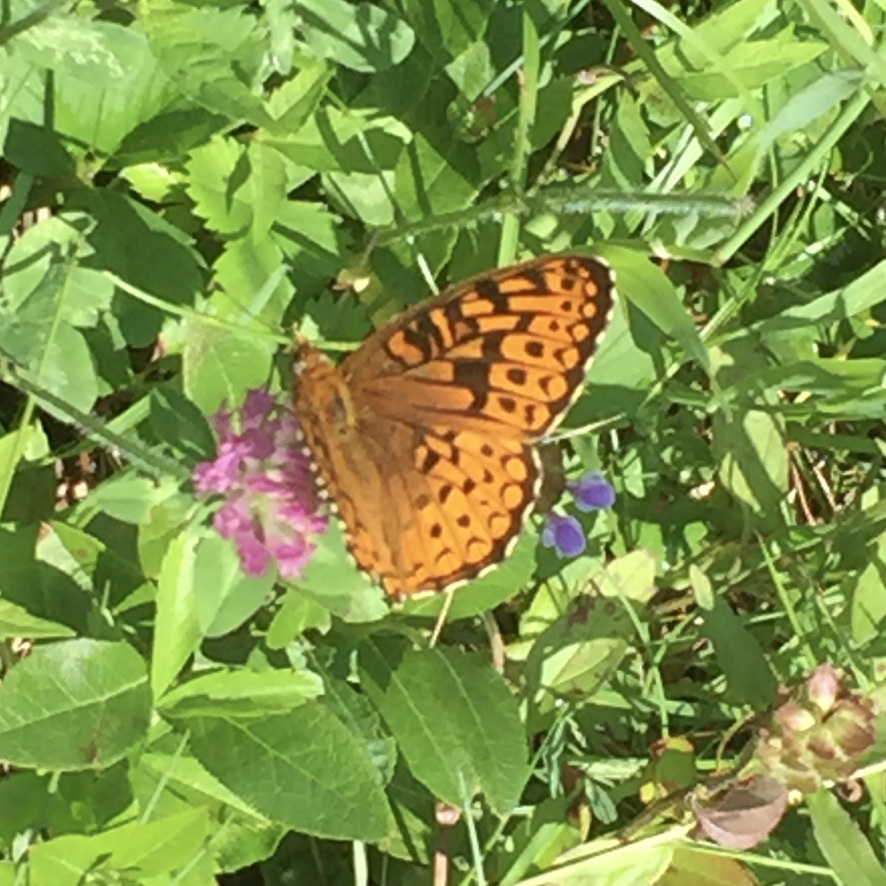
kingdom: Animalia
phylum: Arthropoda
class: Insecta
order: Lepidoptera
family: Nymphalidae
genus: Speyeria
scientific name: Speyeria atlantis
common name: Atlantis fritillary
